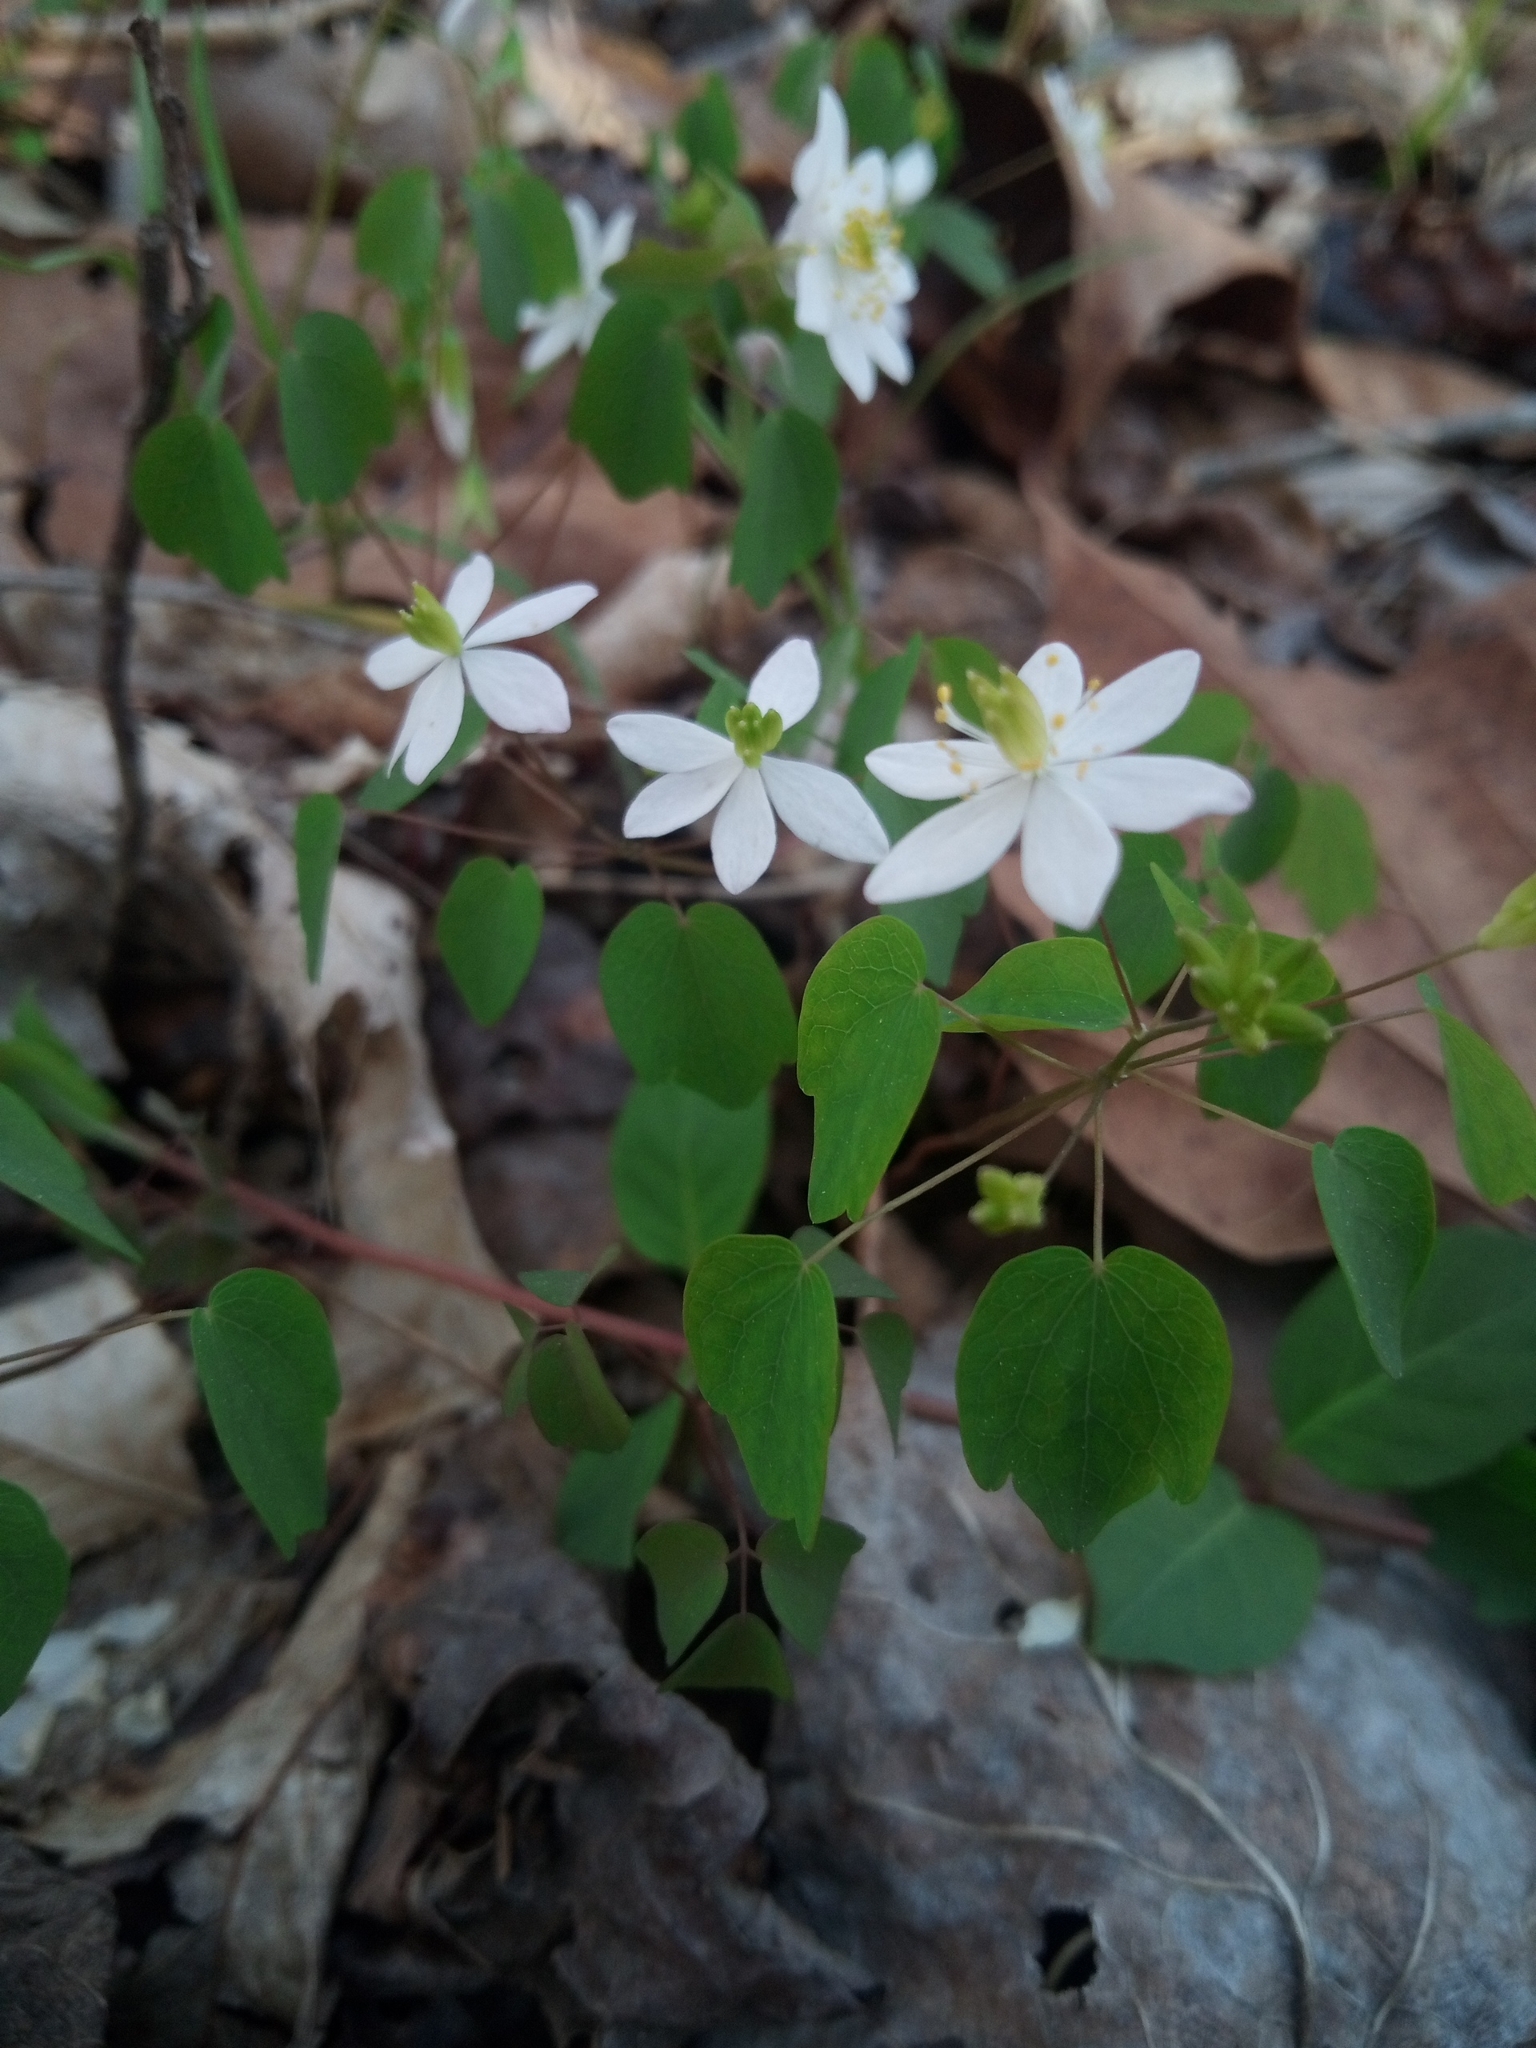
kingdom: Plantae
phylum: Tracheophyta
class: Magnoliopsida
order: Ranunculales
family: Ranunculaceae
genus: Thalictrum
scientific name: Thalictrum thalictroides
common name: Rue-anemone
